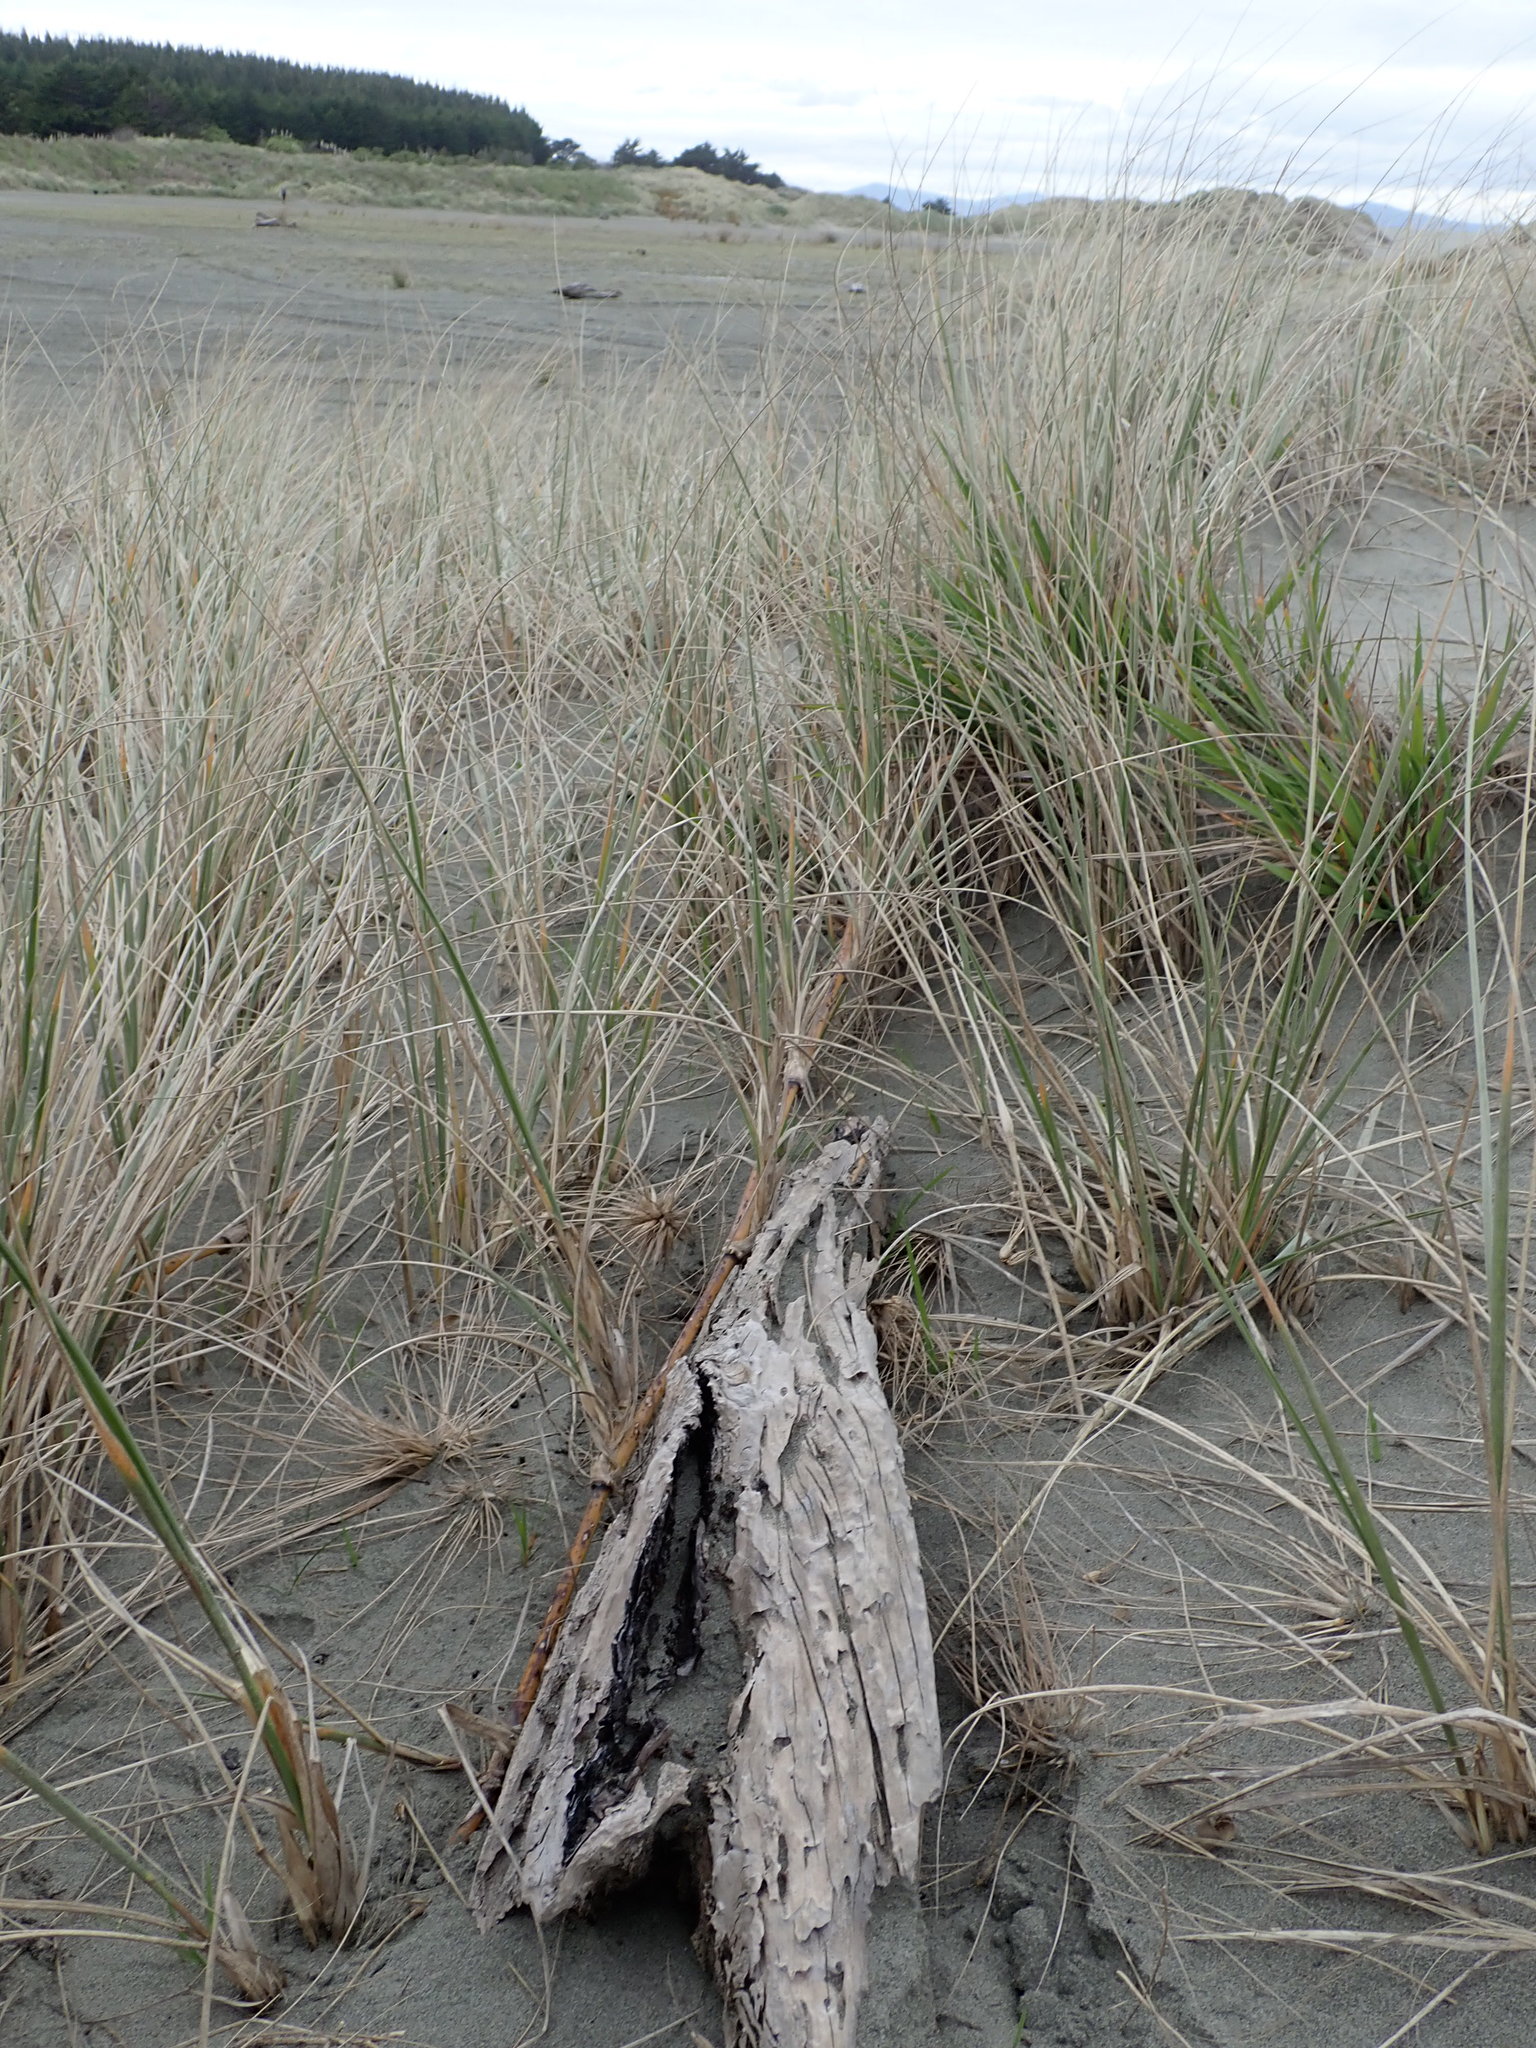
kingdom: Animalia
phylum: Arthropoda
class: Arachnida
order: Araneae
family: Theridiidae
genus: Latrodectus
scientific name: Latrodectus katipo
